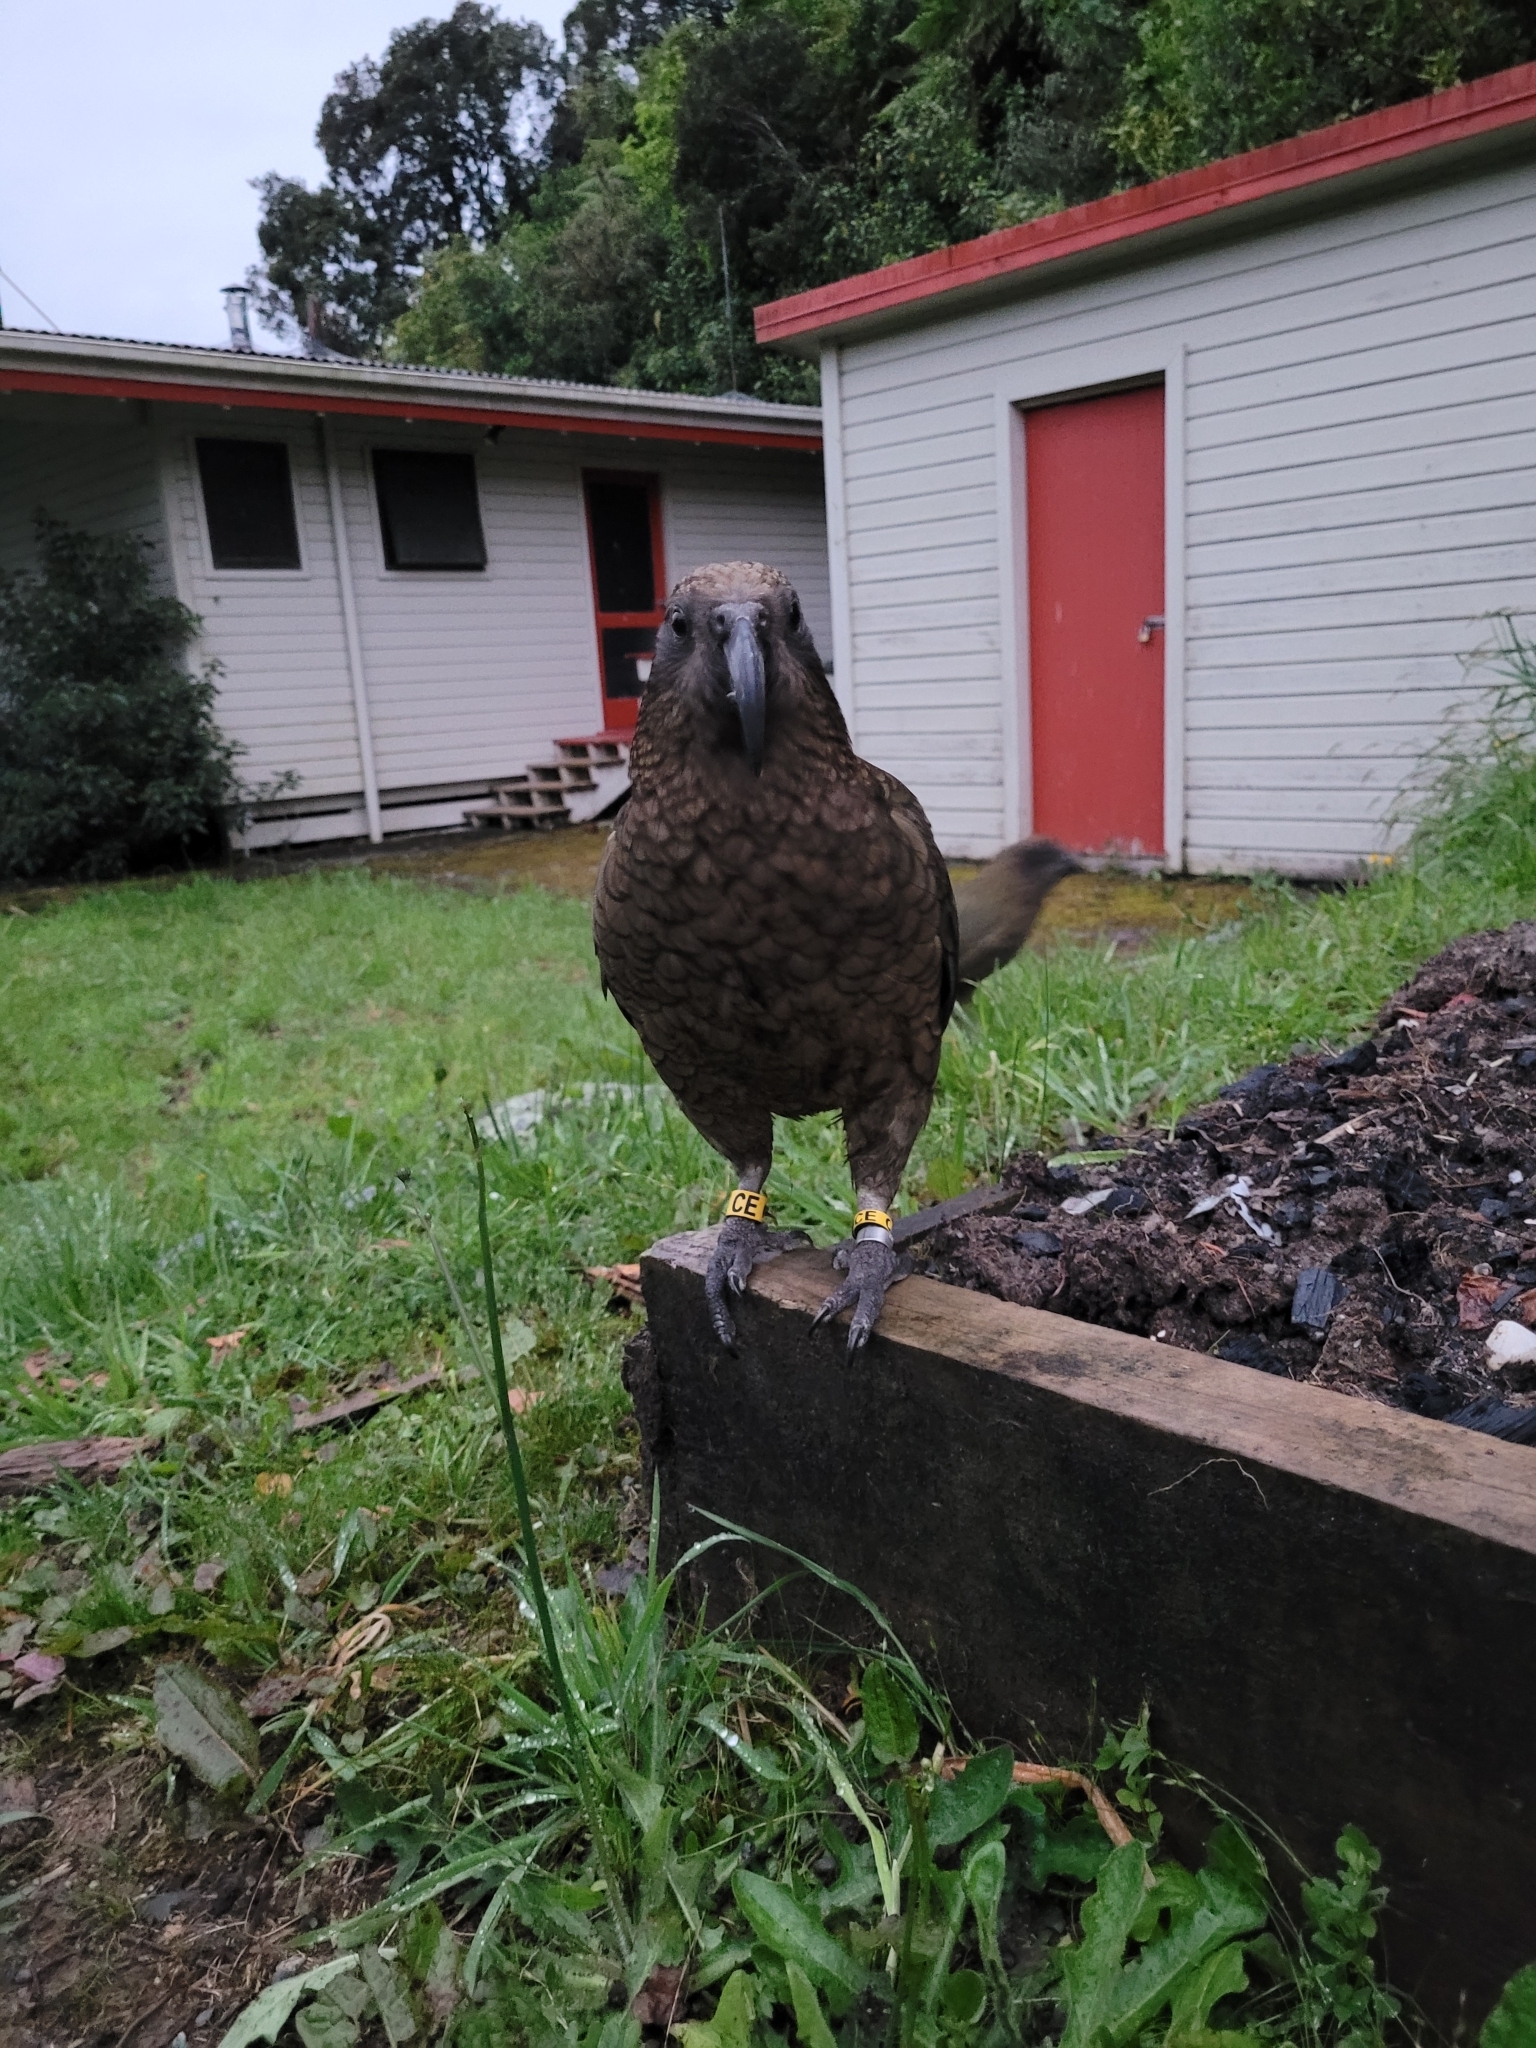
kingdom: Animalia
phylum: Chordata
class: Aves
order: Psittaciformes
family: Psittacidae
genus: Nestor
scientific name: Nestor notabilis
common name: Kea
